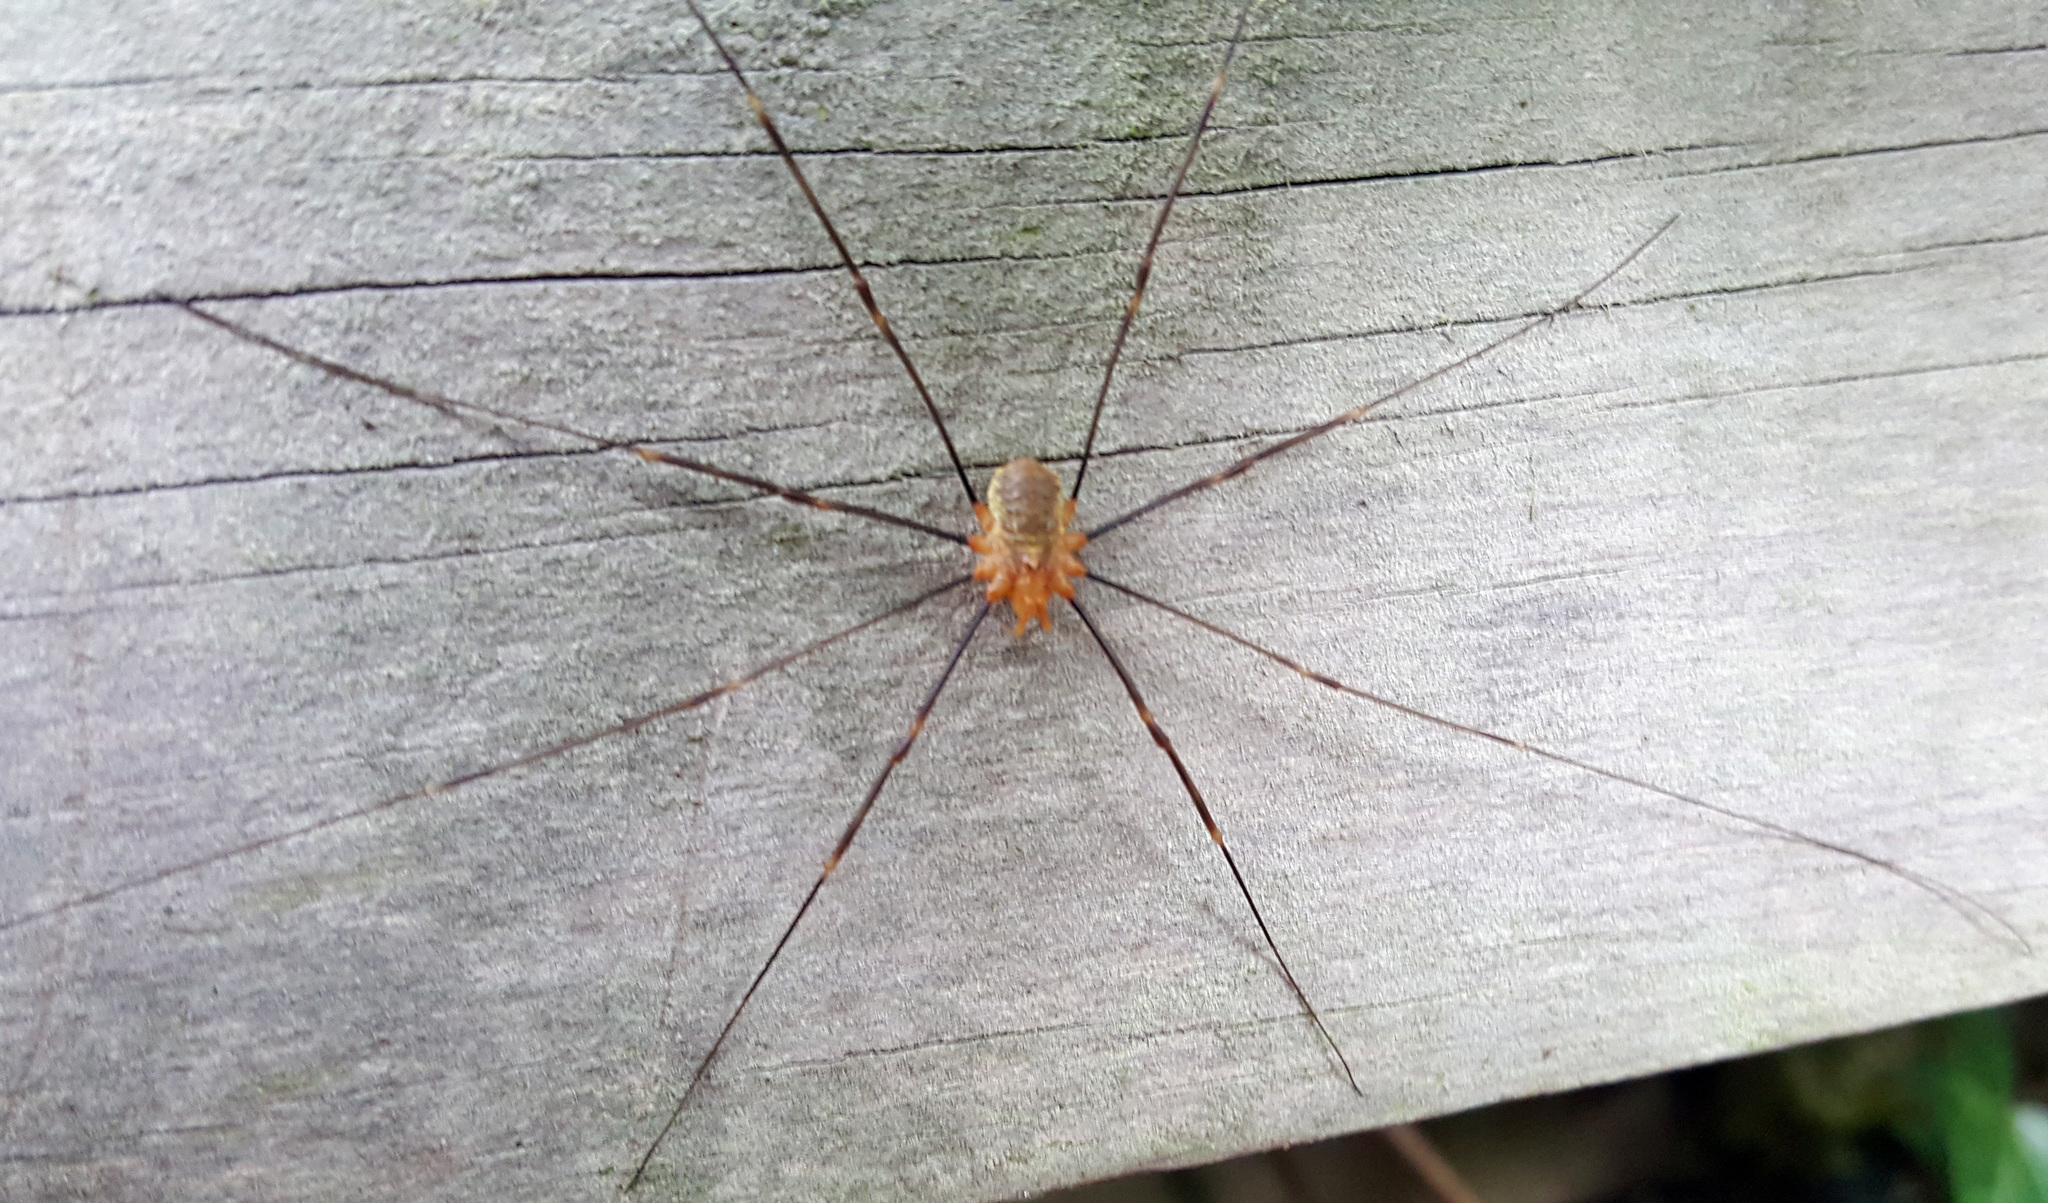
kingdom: Animalia
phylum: Arthropoda
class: Arachnida
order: Opiliones
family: Phalangiidae
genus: Opilio
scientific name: Opilio canestrinii
